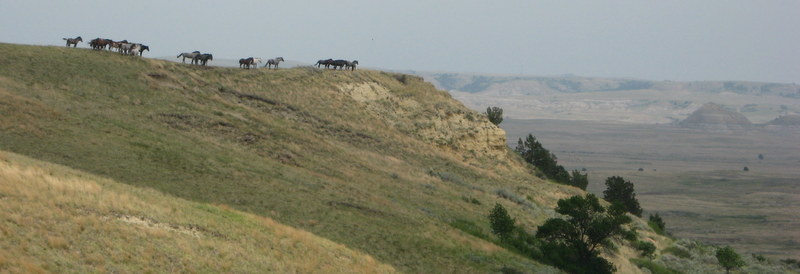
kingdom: Animalia
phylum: Chordata
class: Mammalia
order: Perissodactyla
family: Equidae
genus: Equus
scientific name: Equus caballus
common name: Horse
